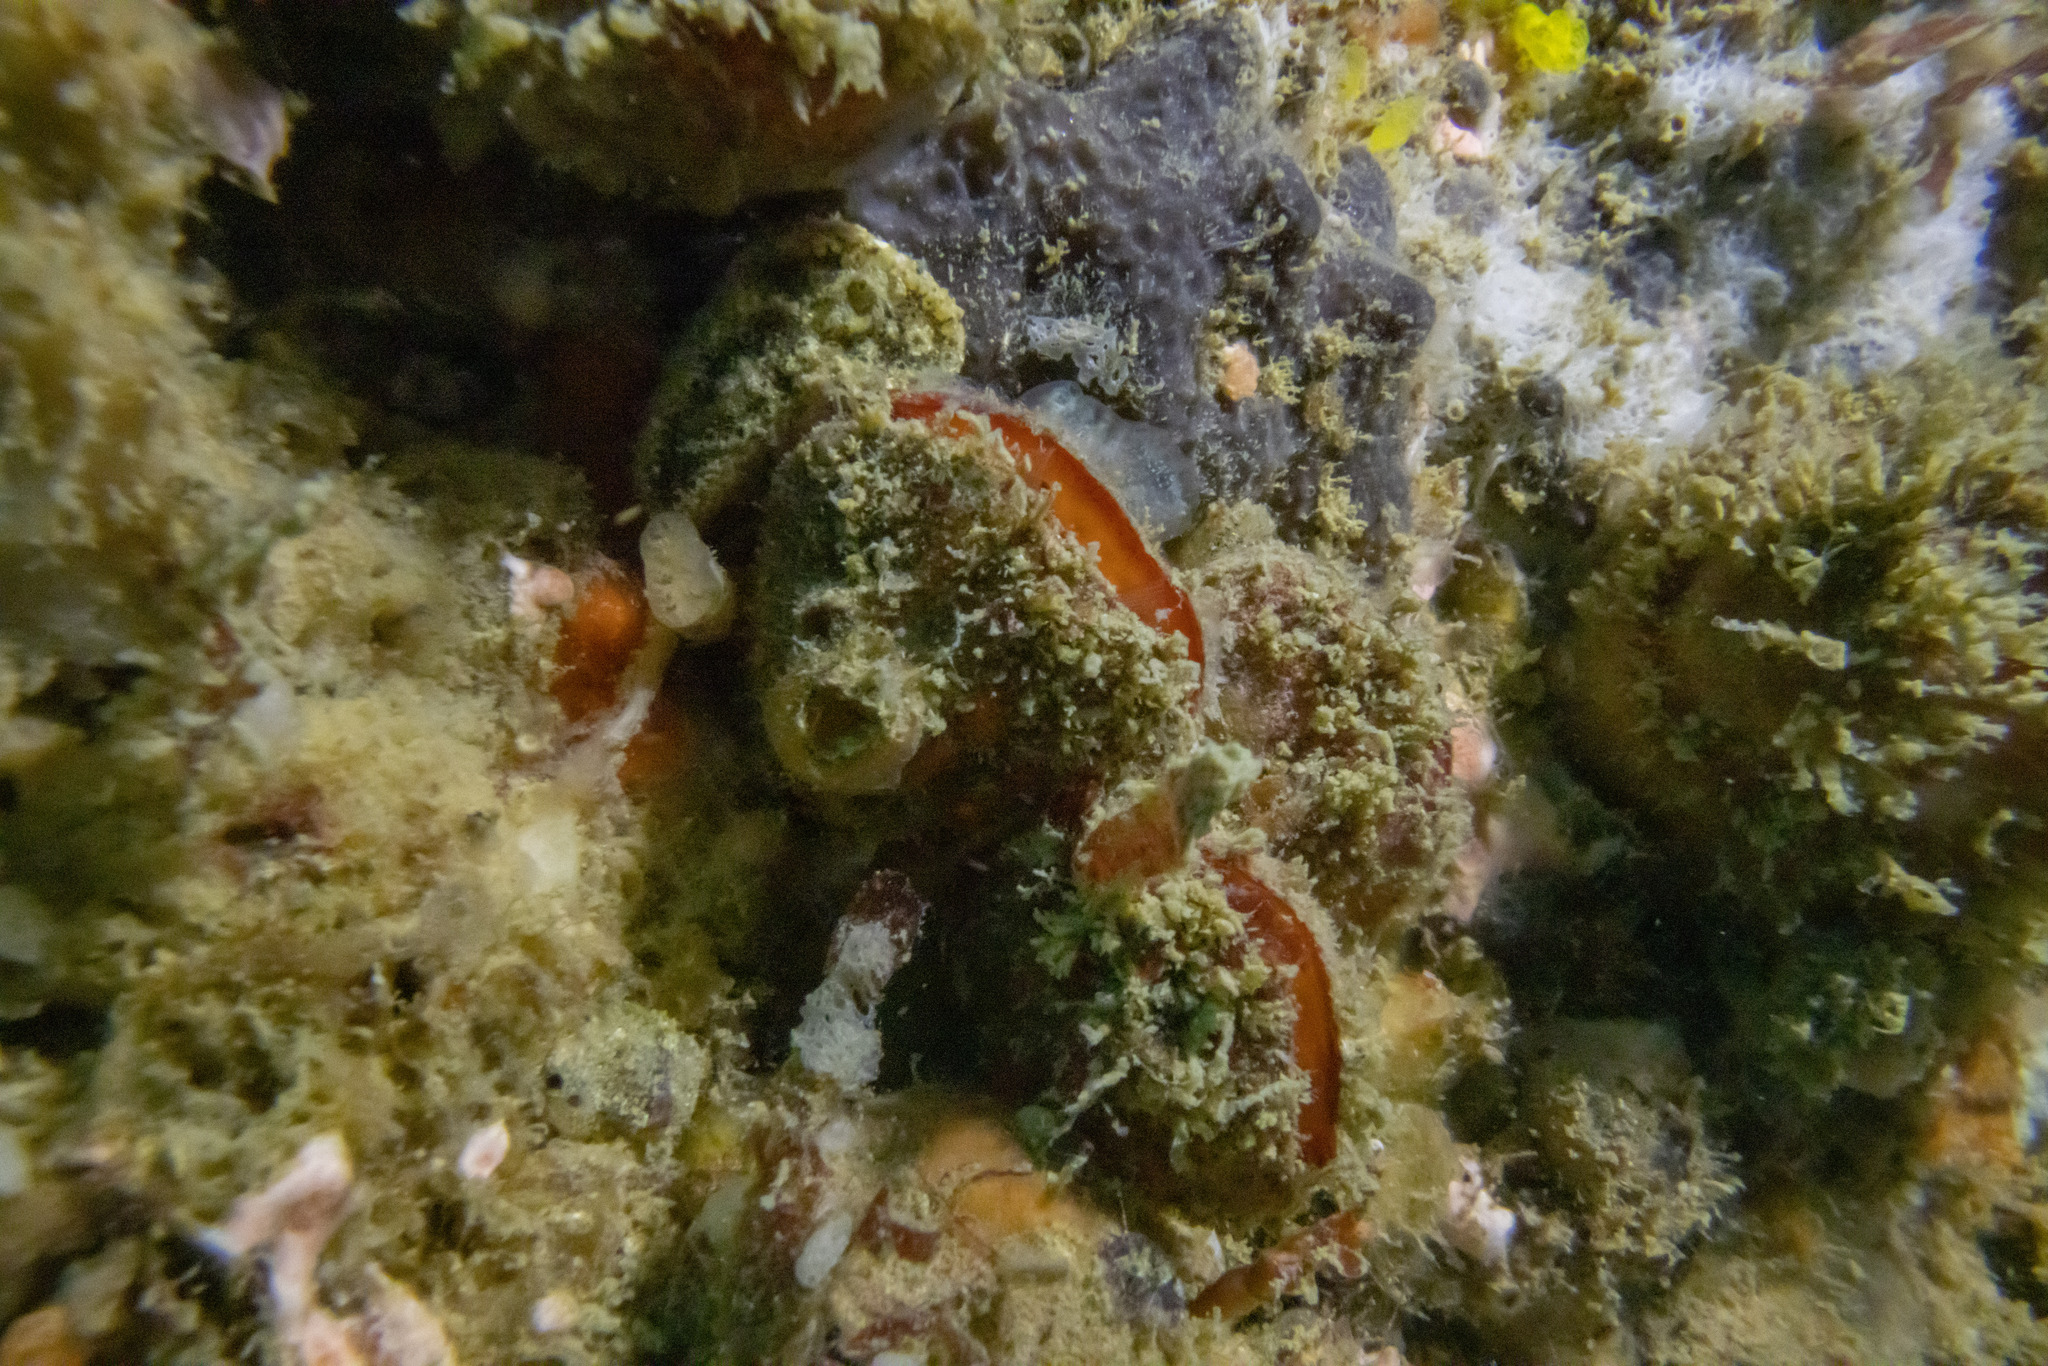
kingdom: Animalia
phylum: Brachiopoda
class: Rhynchonellata
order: Terebratulida
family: Terebratellidae
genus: Calloria
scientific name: Calloria inconspicua
